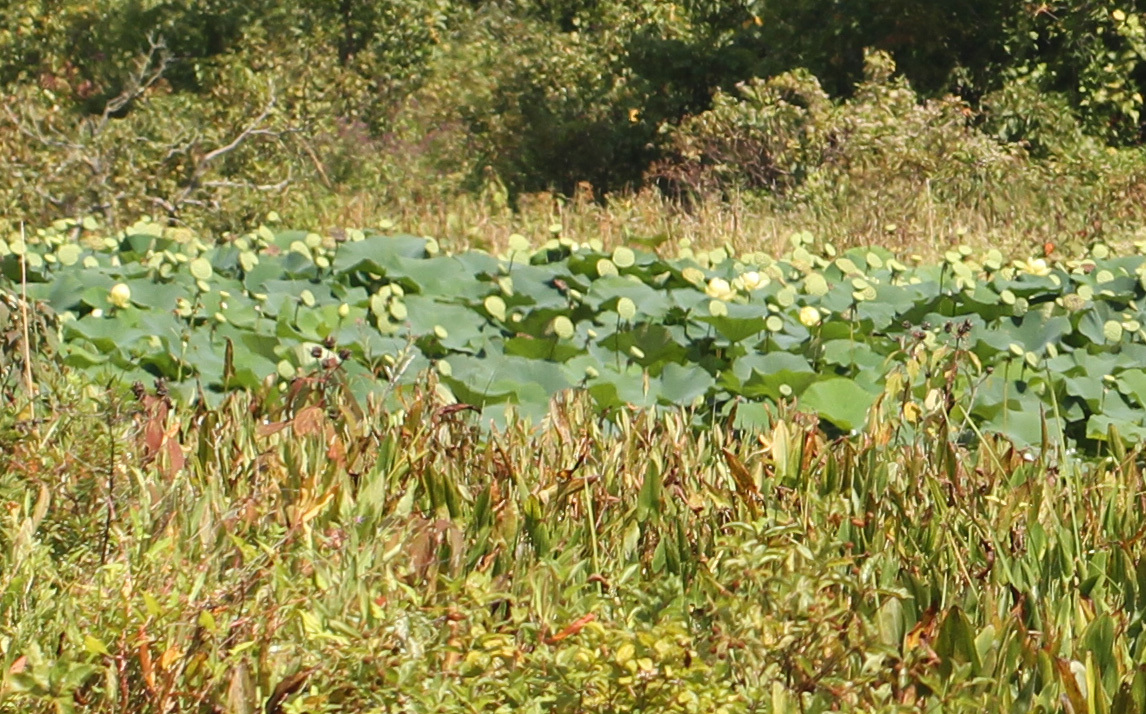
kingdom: Plantae
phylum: Tracheophyta
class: Magnoliopsida
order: Proteales
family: Nelumbonaceae
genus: Nelumbo
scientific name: Nelumbo lutea
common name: American lotus
